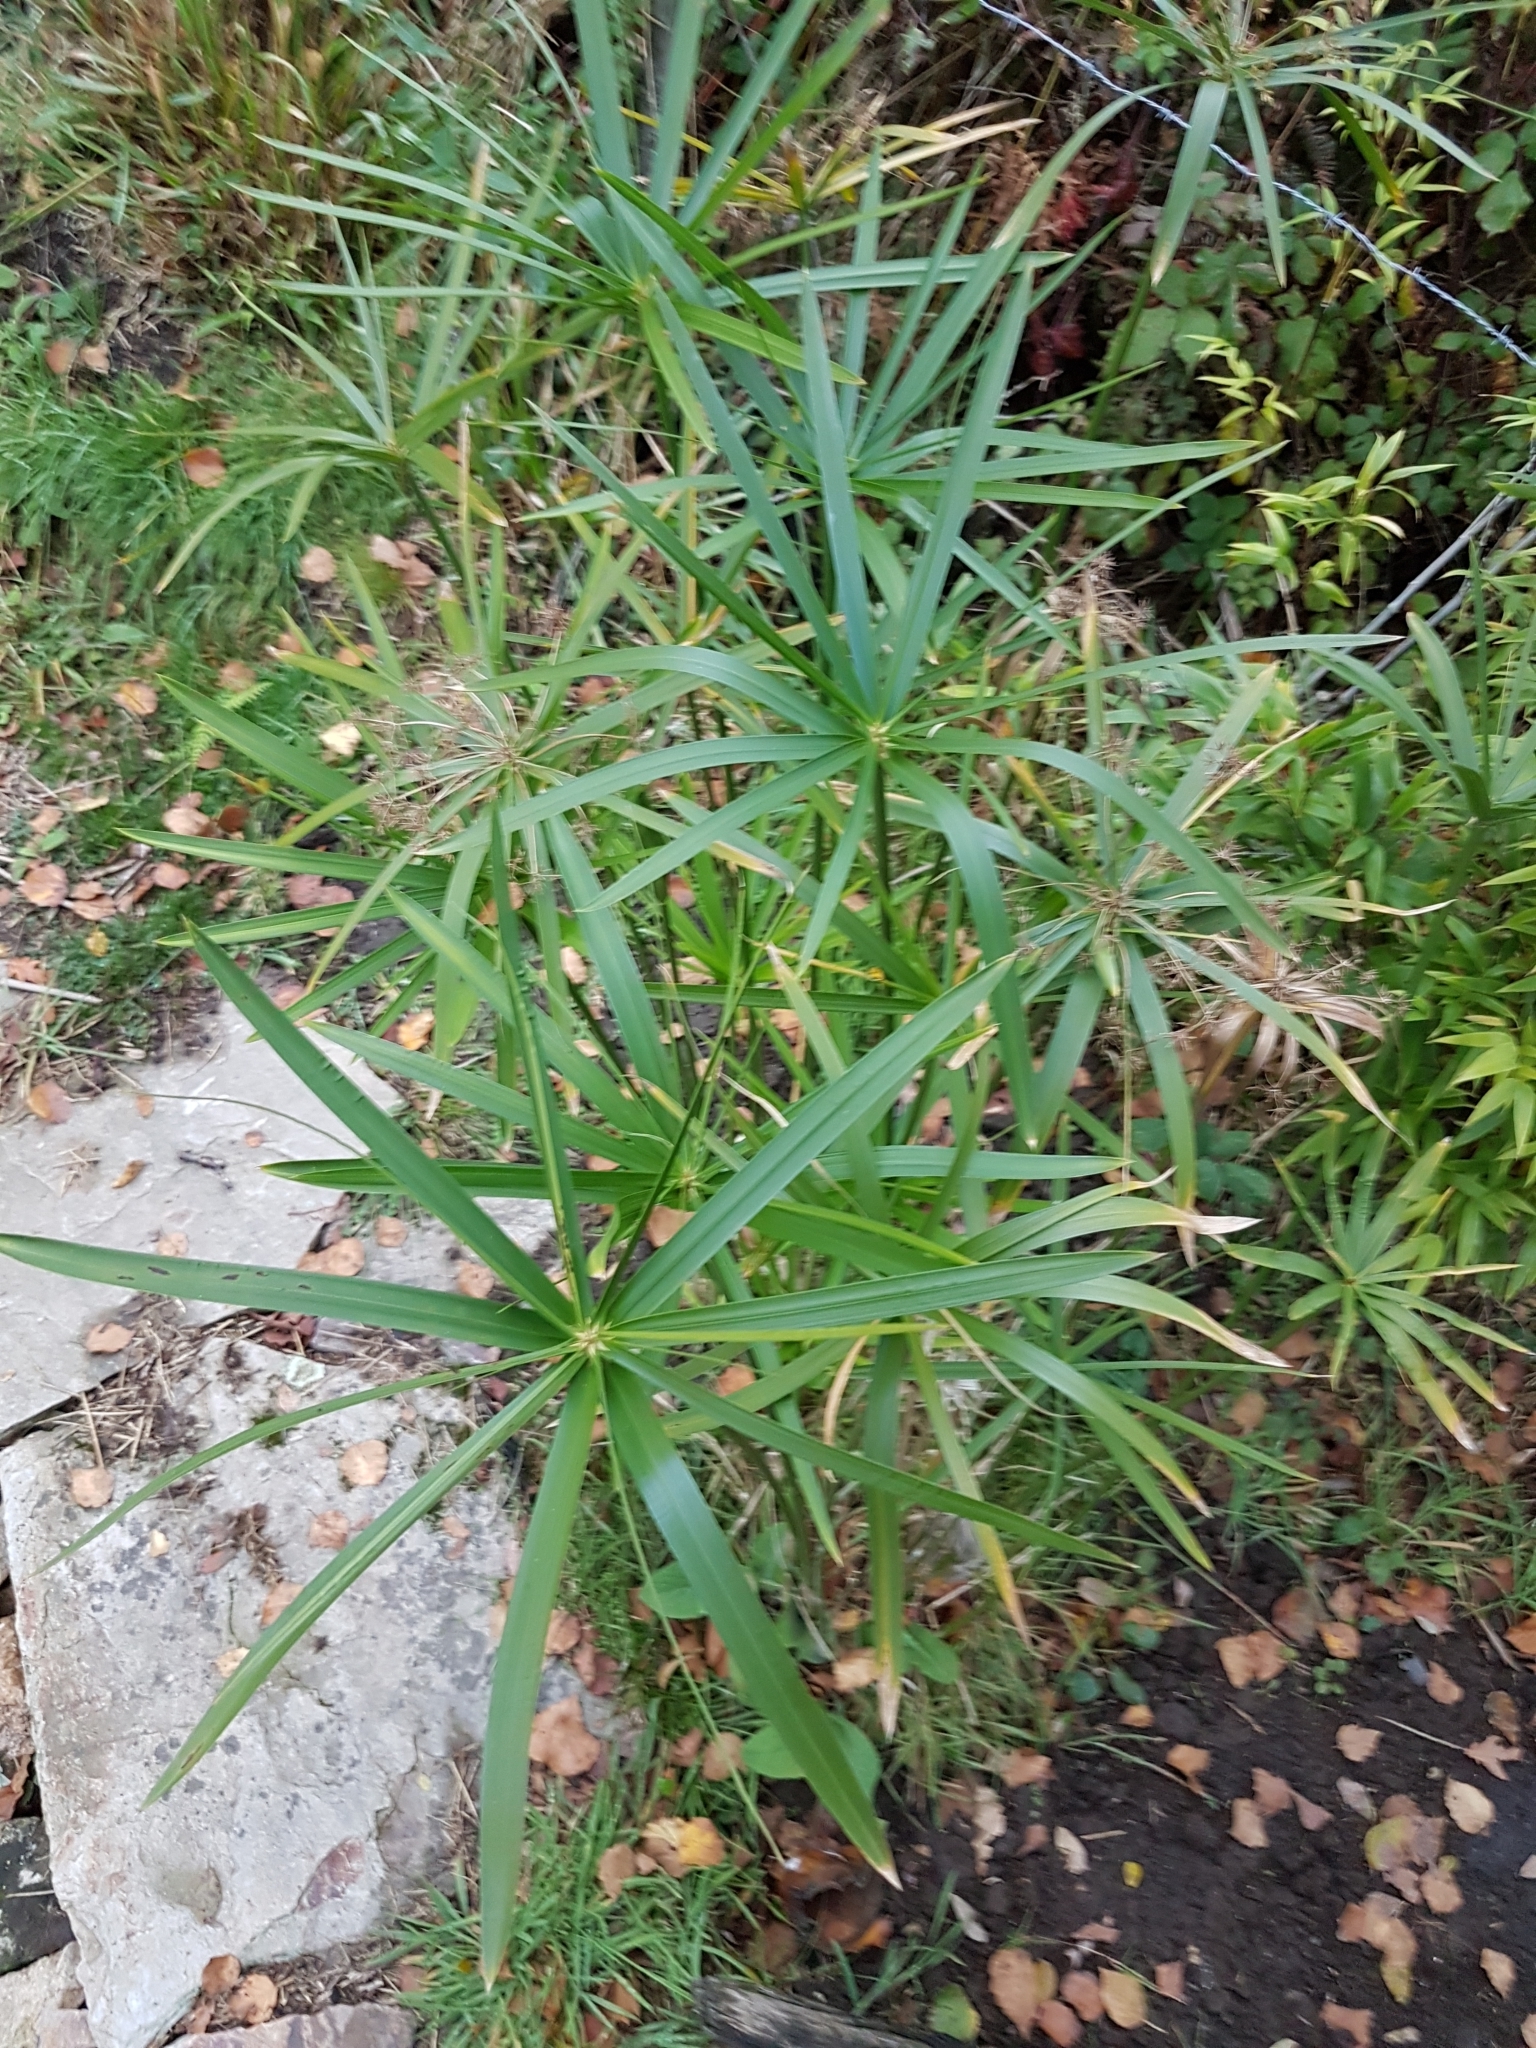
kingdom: Plantae
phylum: Tracheophyta
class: Liliopsida
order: Poales
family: Cyperaceae
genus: Cyperus
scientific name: Cyperus eragrostis
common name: Tall flatsedge
